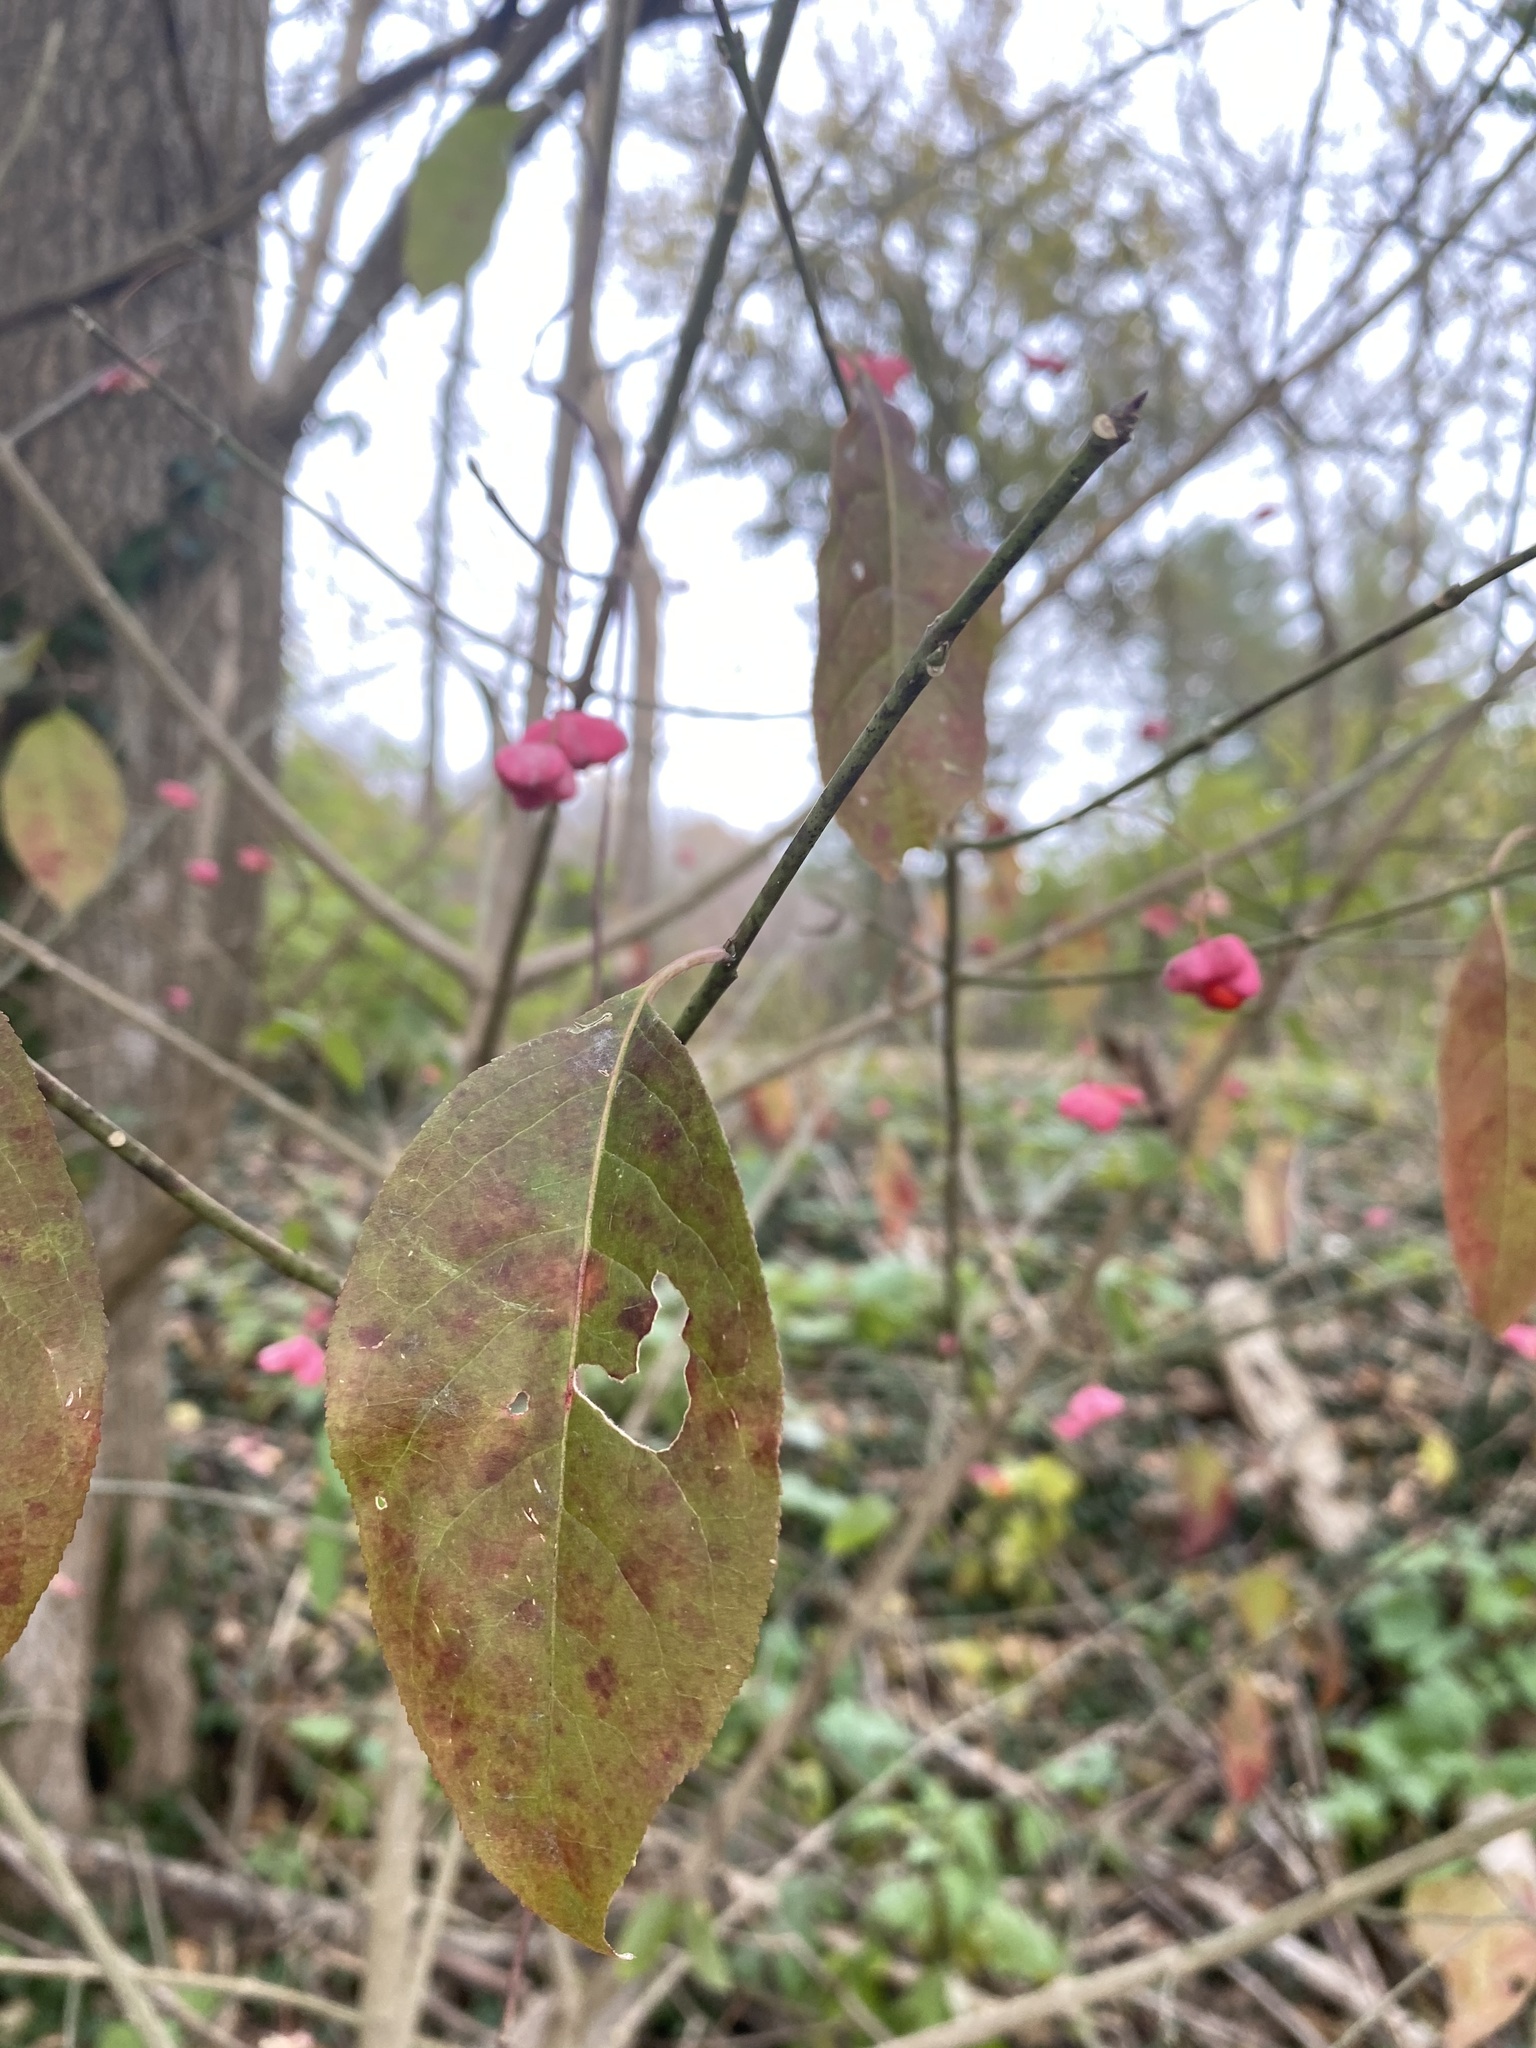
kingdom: Plantae
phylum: Tracheophyta
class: Magnoliopsida
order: Celastrales
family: Celastraceae
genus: Euonymus
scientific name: Euonymus atropurpureus
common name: Eastern wahoo
